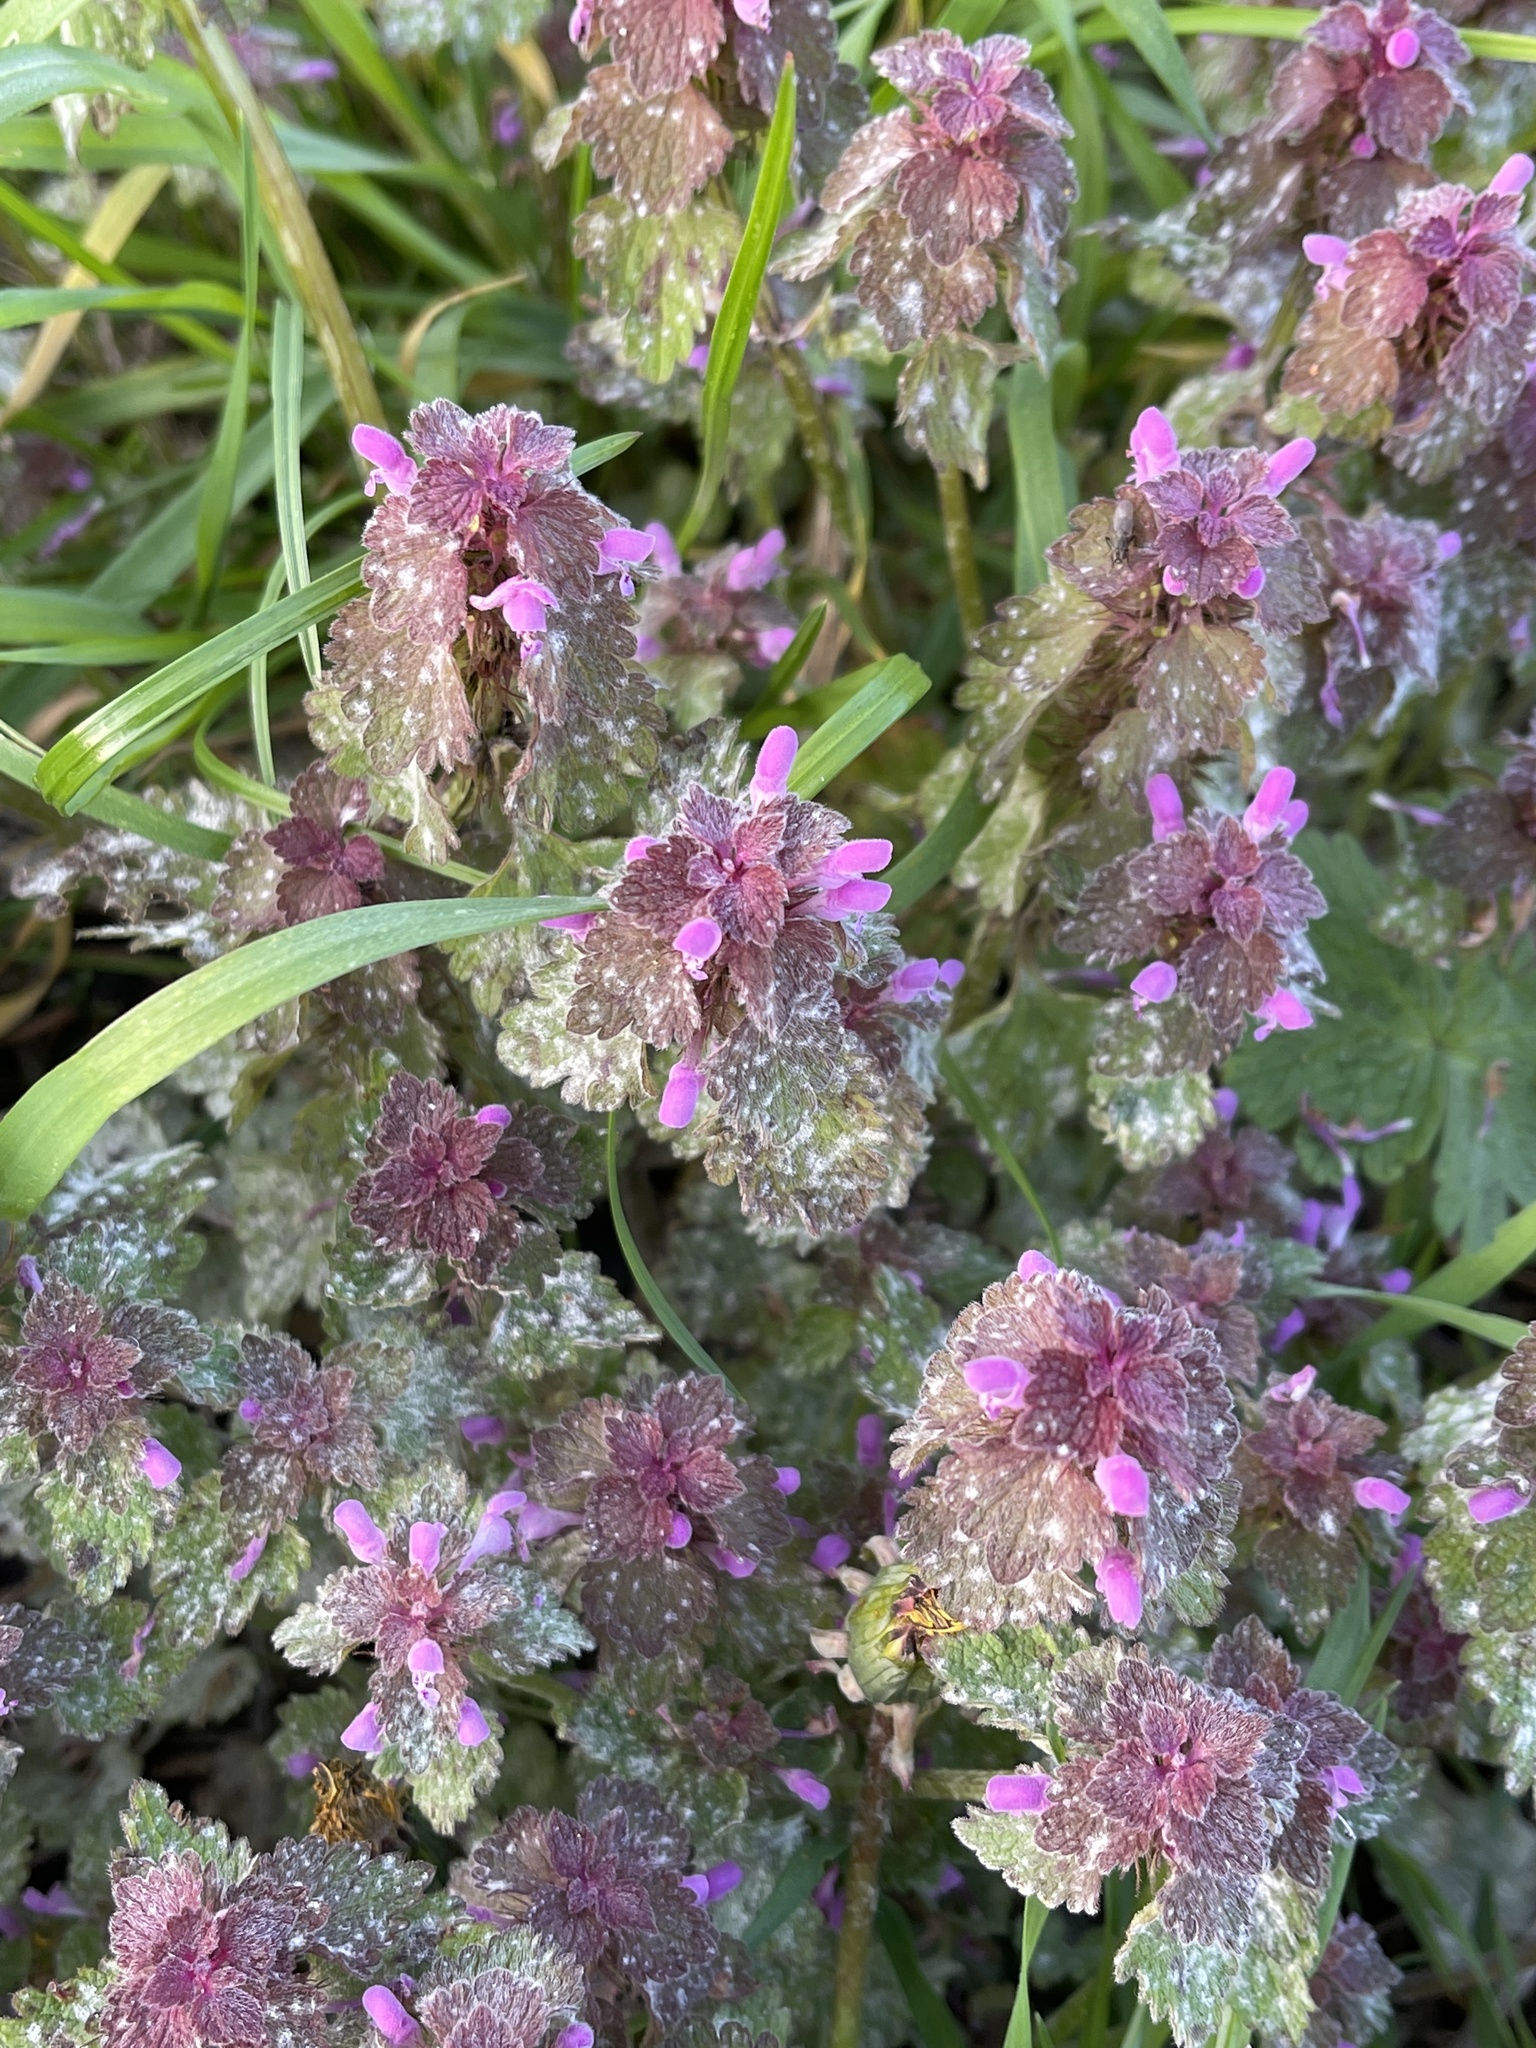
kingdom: Plantae
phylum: Tracheophyta
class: Magnoliopsida
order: Lamiales
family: Lamiaceae
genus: Lamium
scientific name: Lamium purpureum
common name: Red dead-nettle
